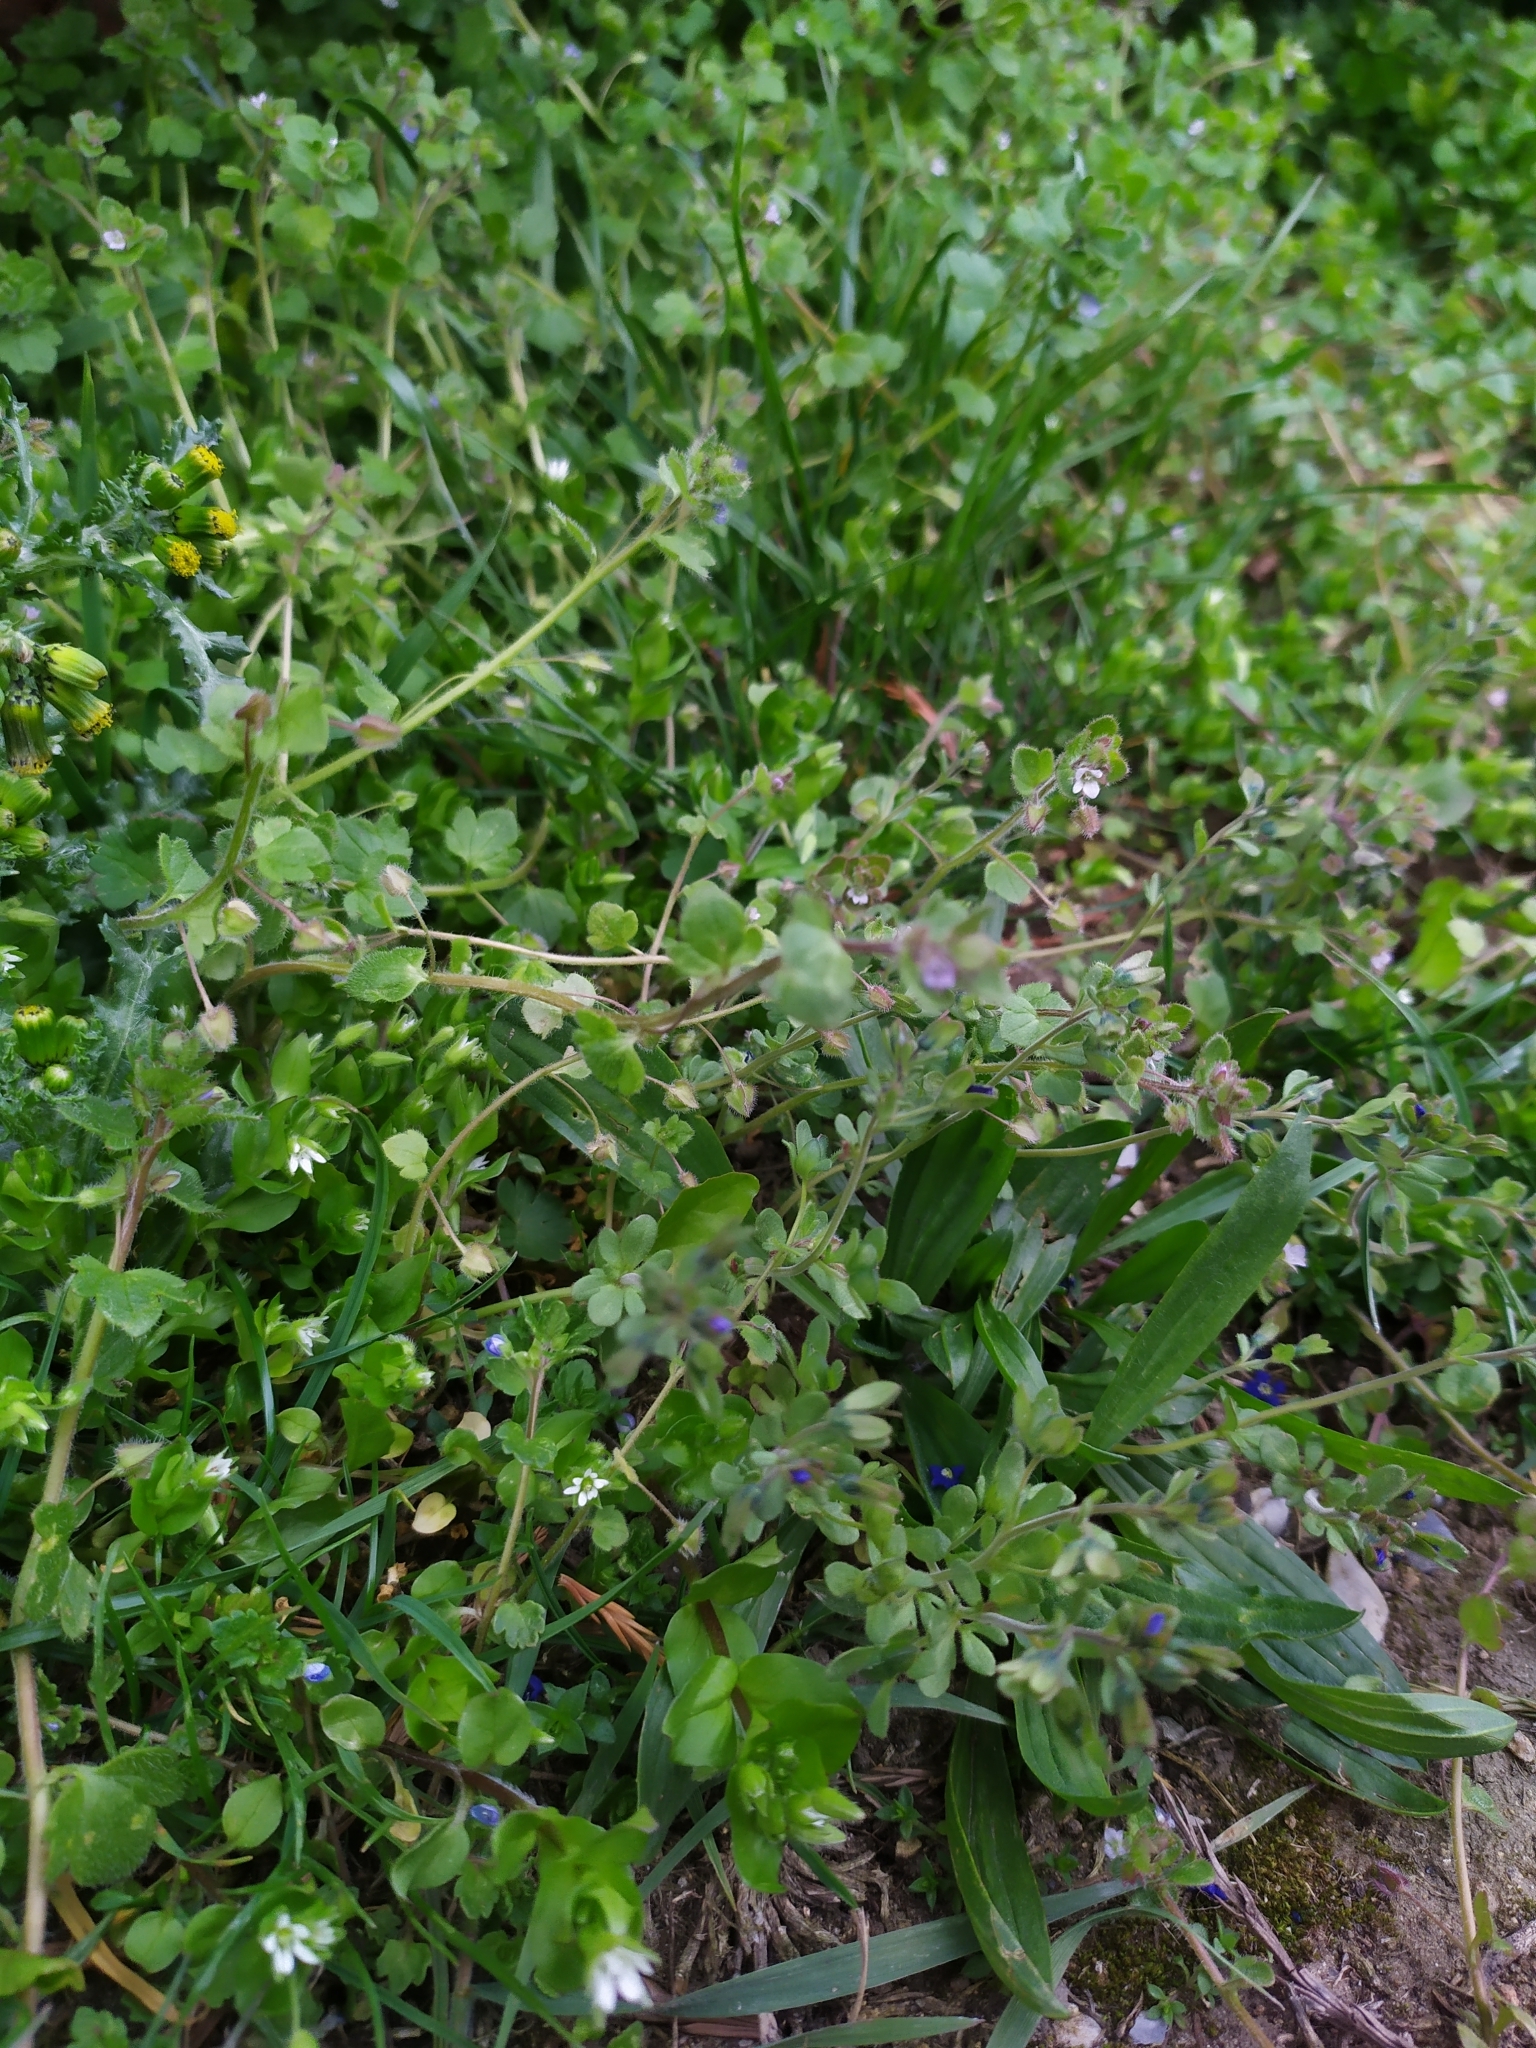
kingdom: Plantae
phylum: Tracheophyta
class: Magnoliopsida
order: Lamiales
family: Plantaginaceae
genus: Veronica
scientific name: Veronica triphyllos
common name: Fingered speedwell
